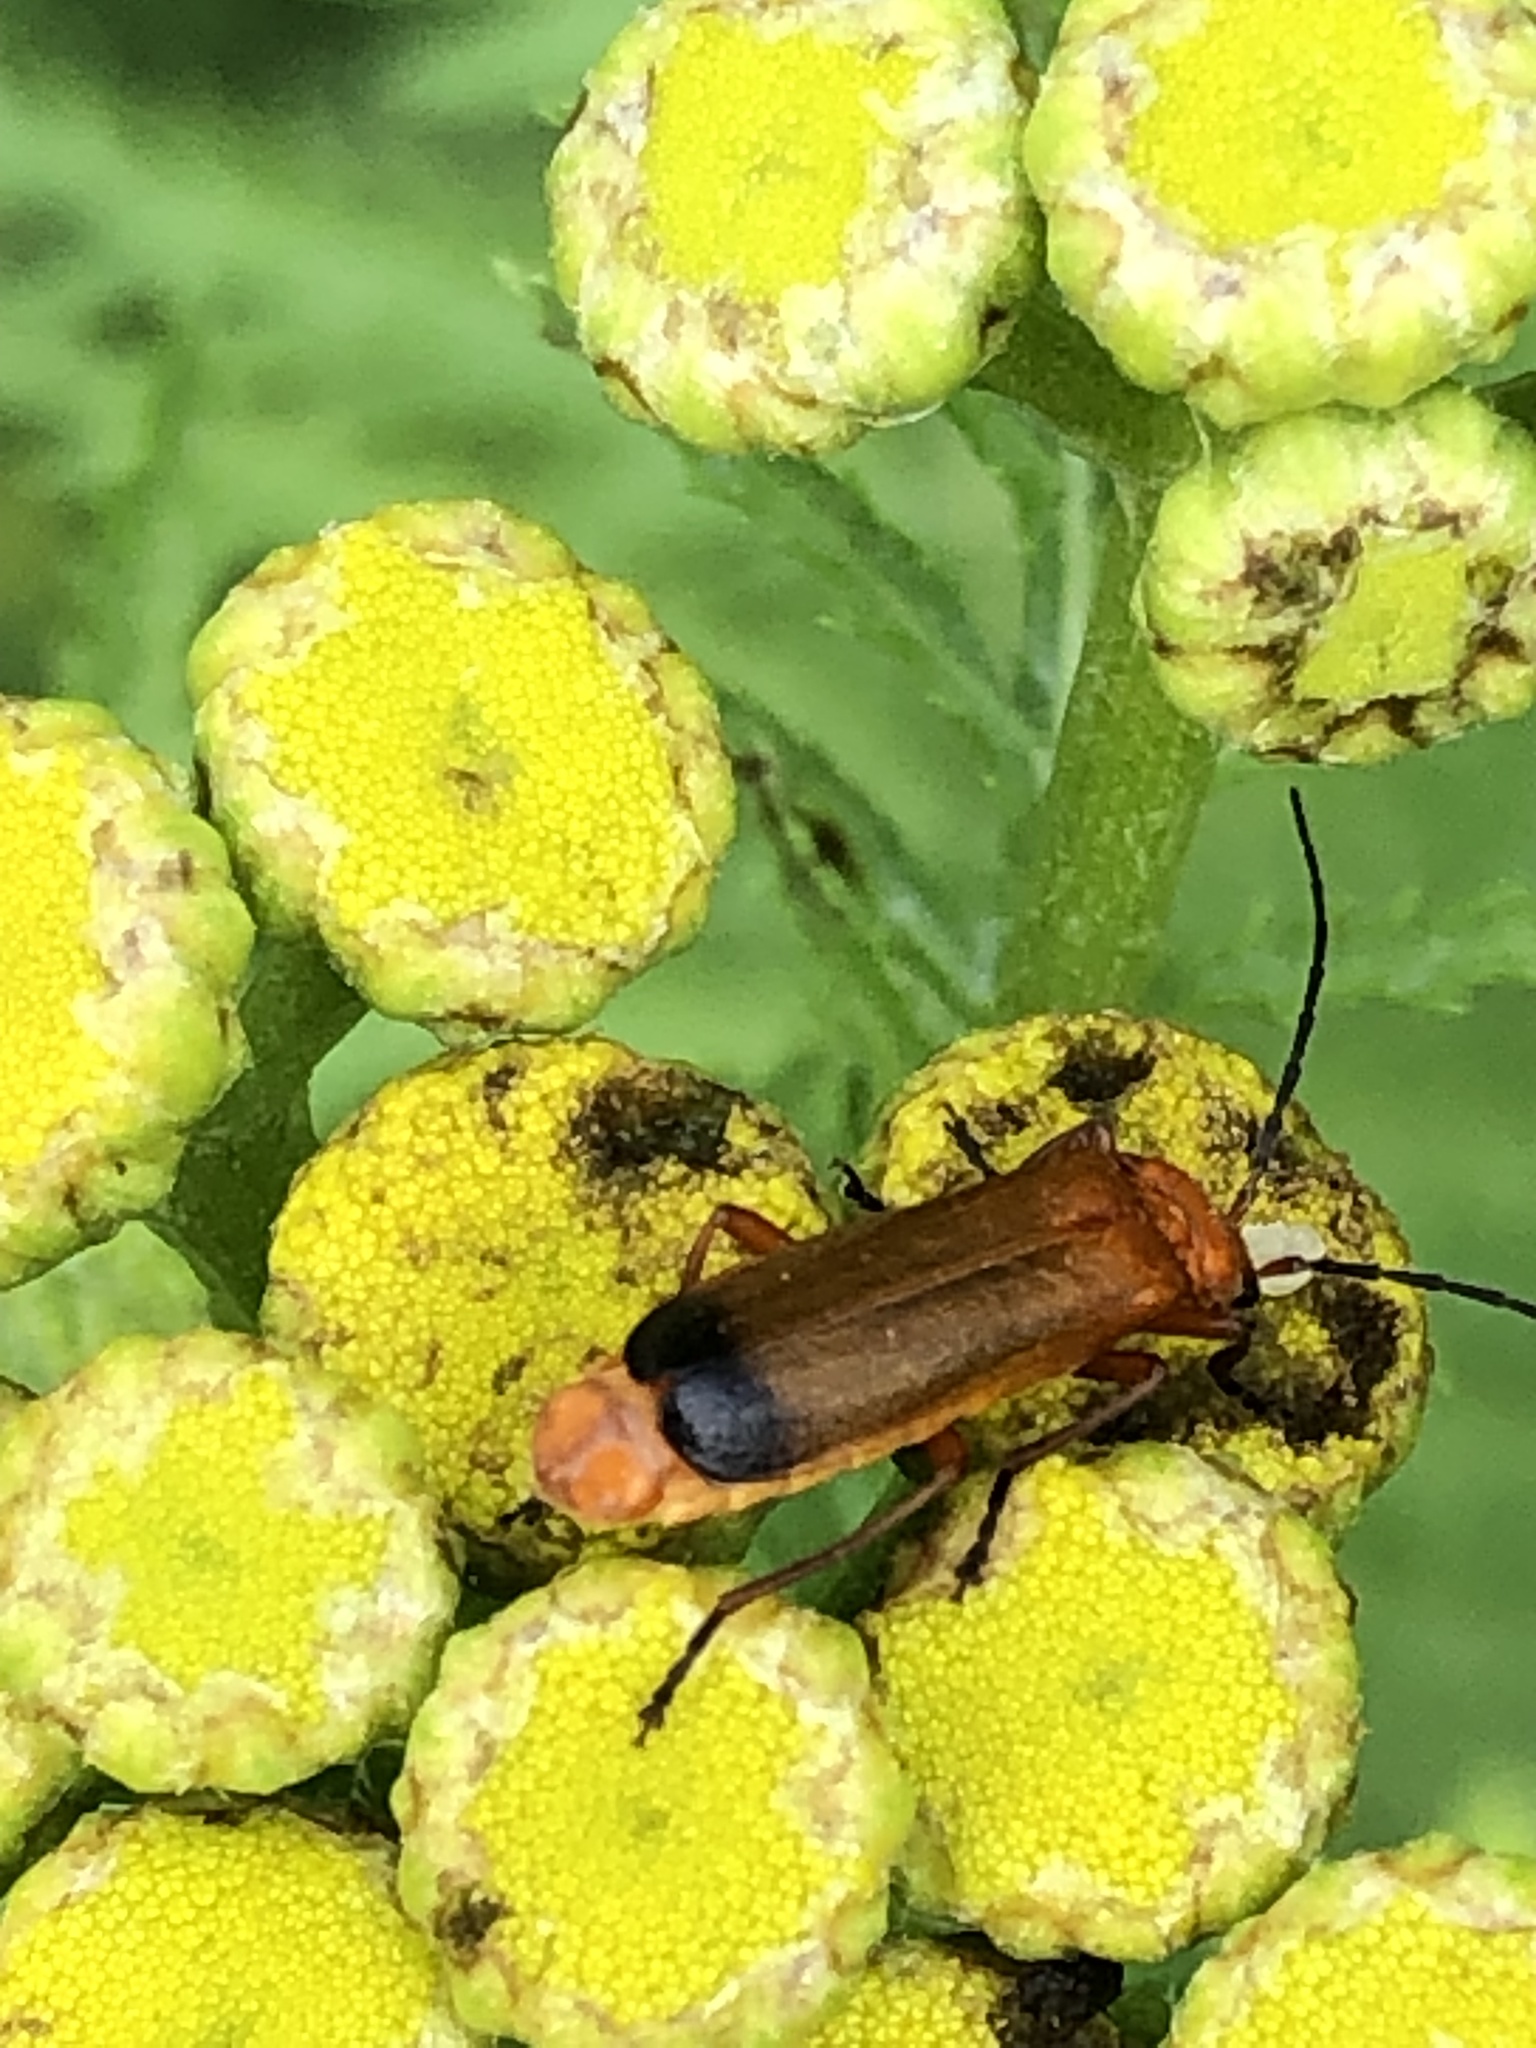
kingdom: Animalia
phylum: Arthropoda
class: Insecta
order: Coleoptera
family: Cantharidae
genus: Rhagonycha
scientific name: Rhagonycha fulva
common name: Common red soldier beetle
